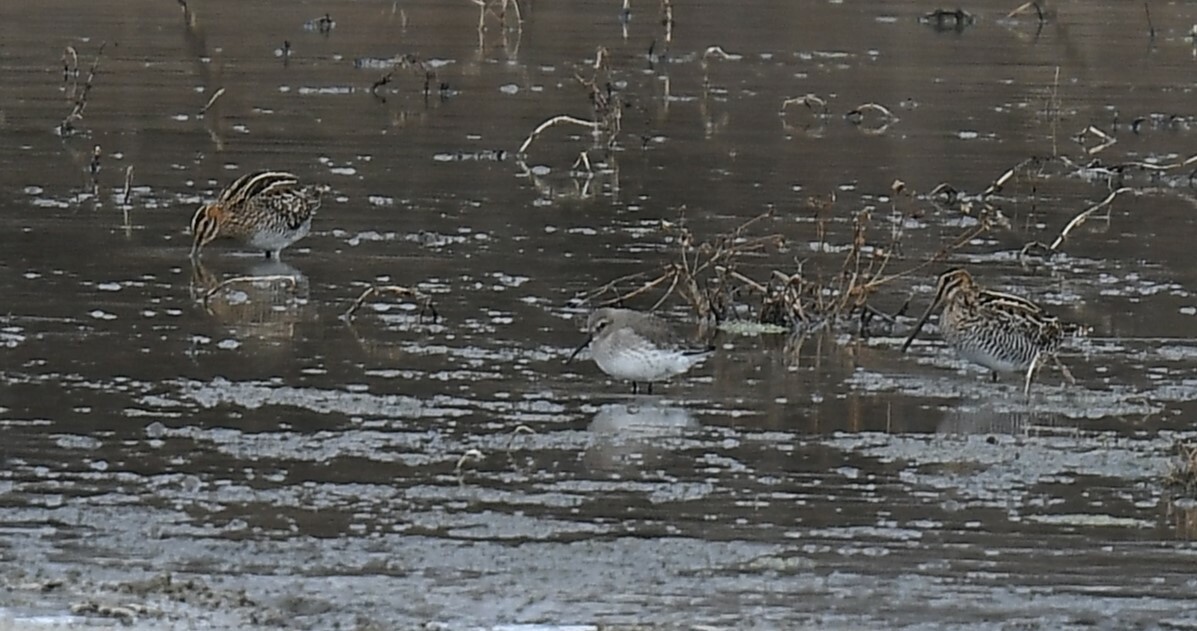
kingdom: Animalia
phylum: Chordata
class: Aves
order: Charadriiformes
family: Scolopacidae
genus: Calidris
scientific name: Calidris alpina
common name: Dunlin
